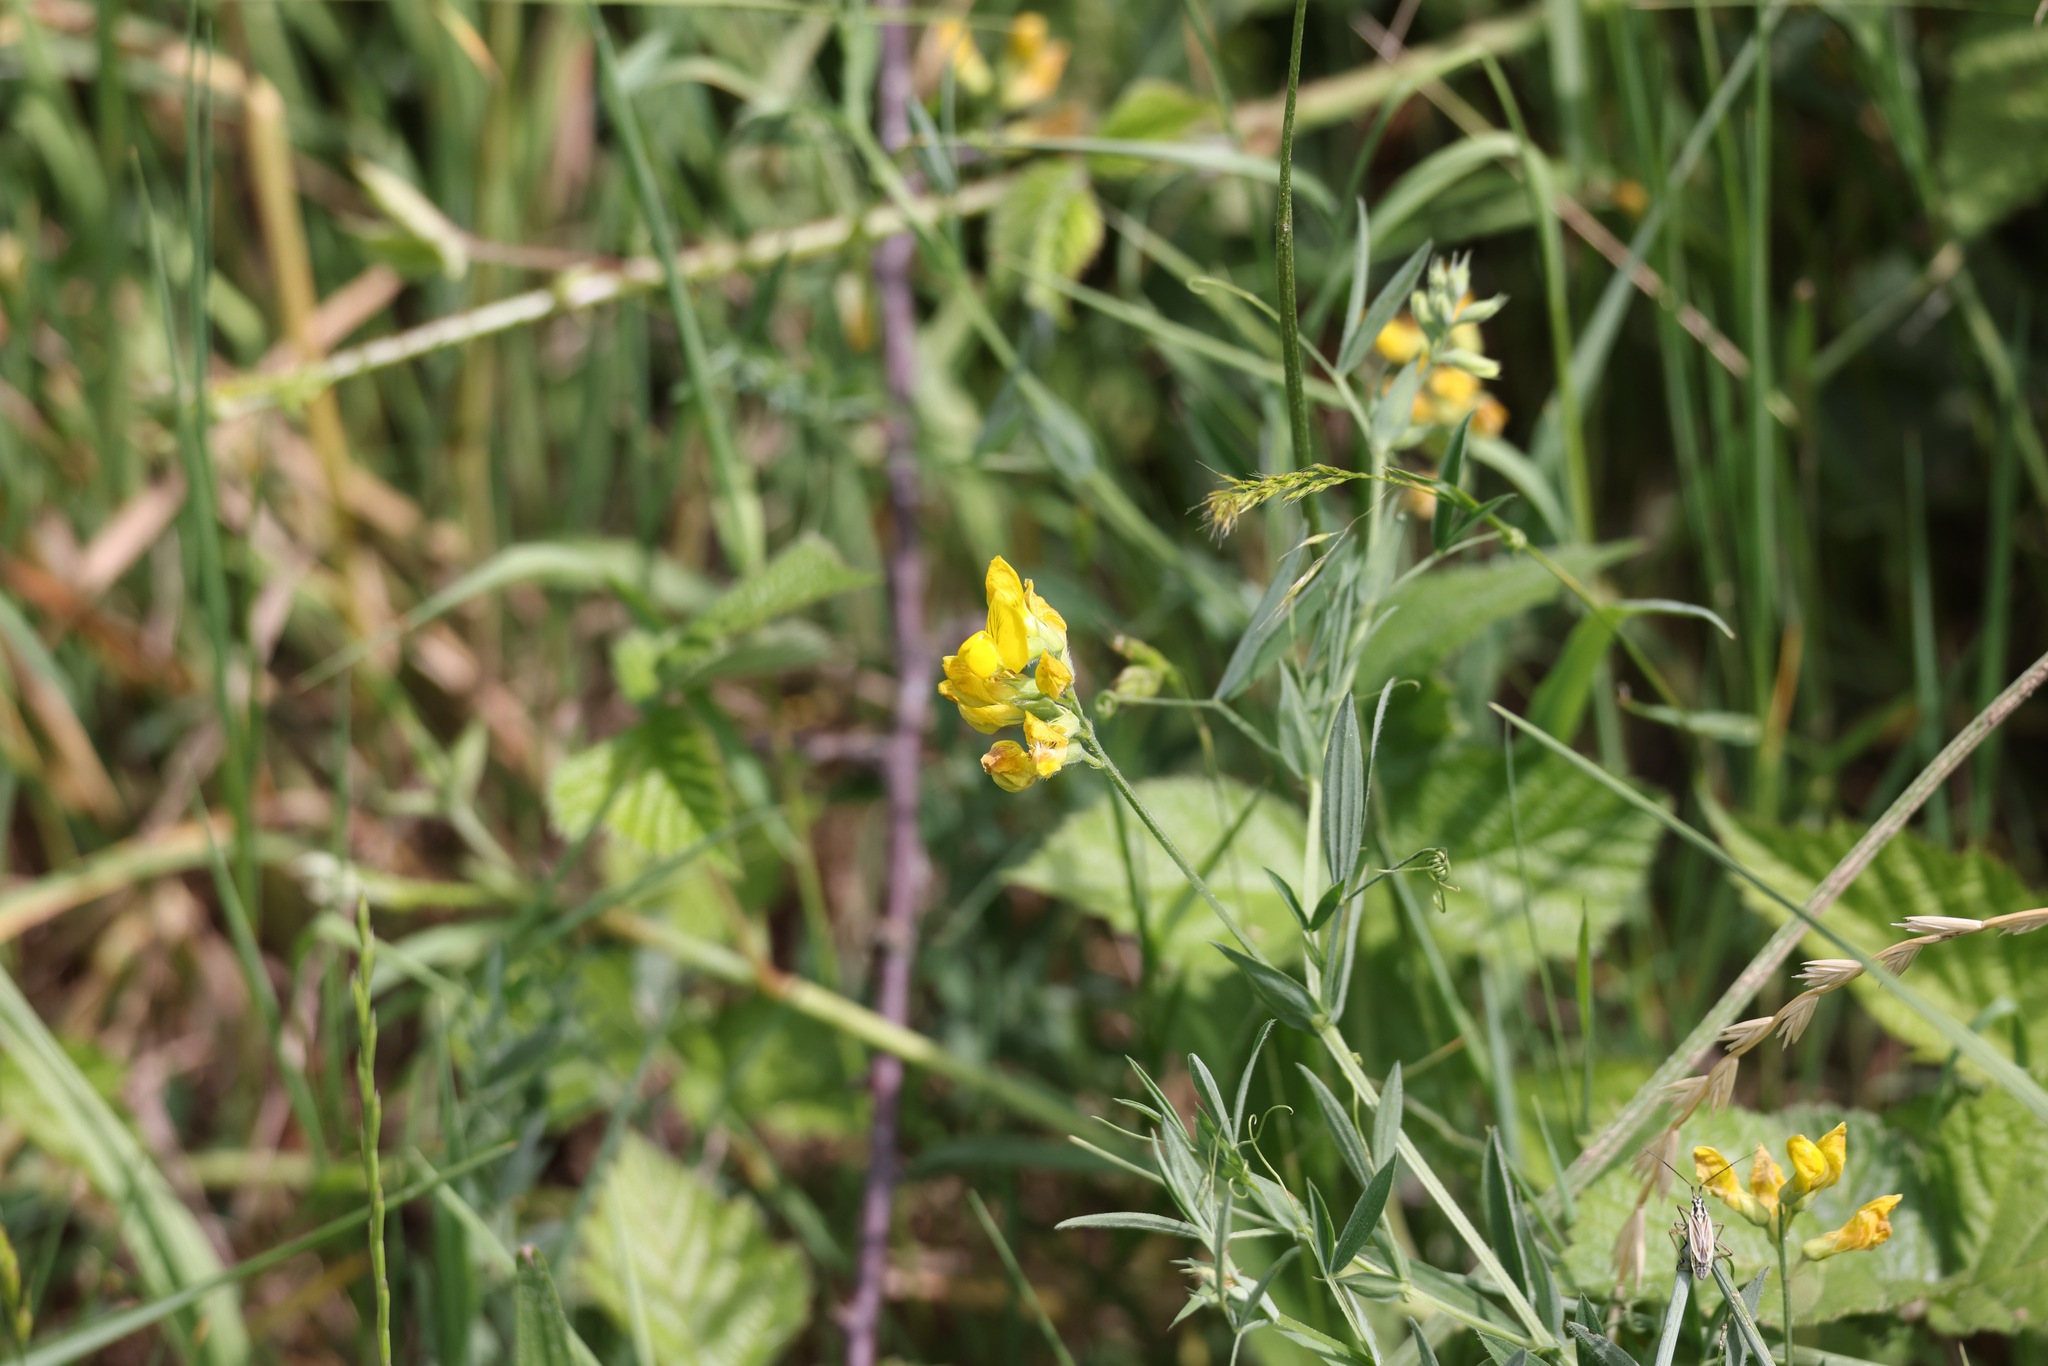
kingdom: Plantae
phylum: Tracheophyta
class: Magnoliopsida
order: Fabales
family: Fabaceae
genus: Lathyrus
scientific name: Lathyrus pratensis
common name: Meadow vetchling
